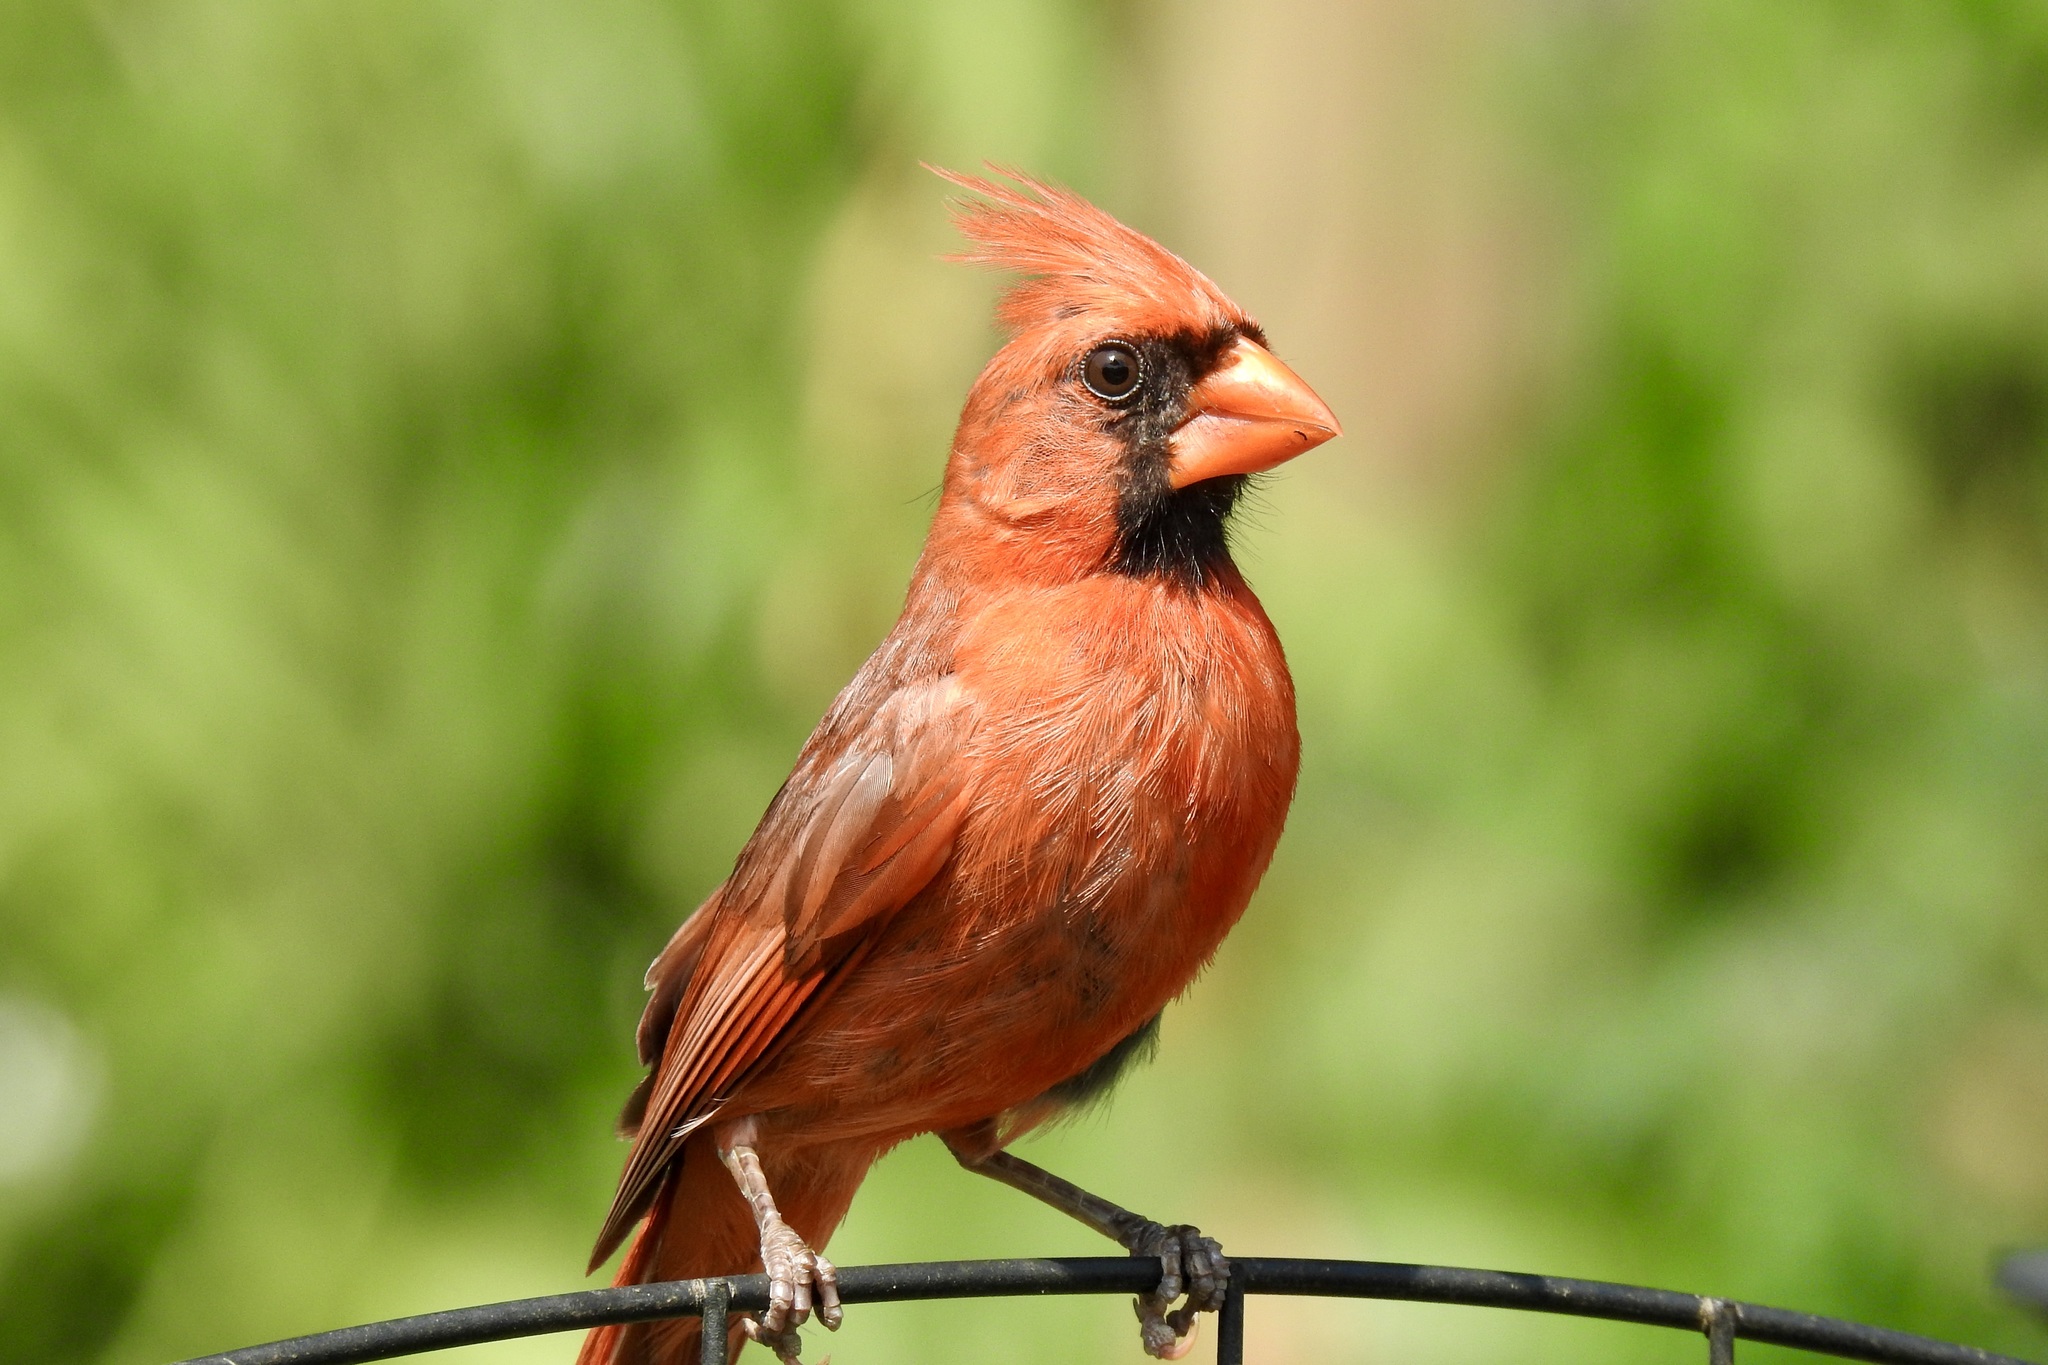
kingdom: Animalia
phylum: Chordata
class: Aves
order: Passeriformes
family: Cardinalidae
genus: Cardinalis
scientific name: Cardinalis cardinalis
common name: Northern cardinal
